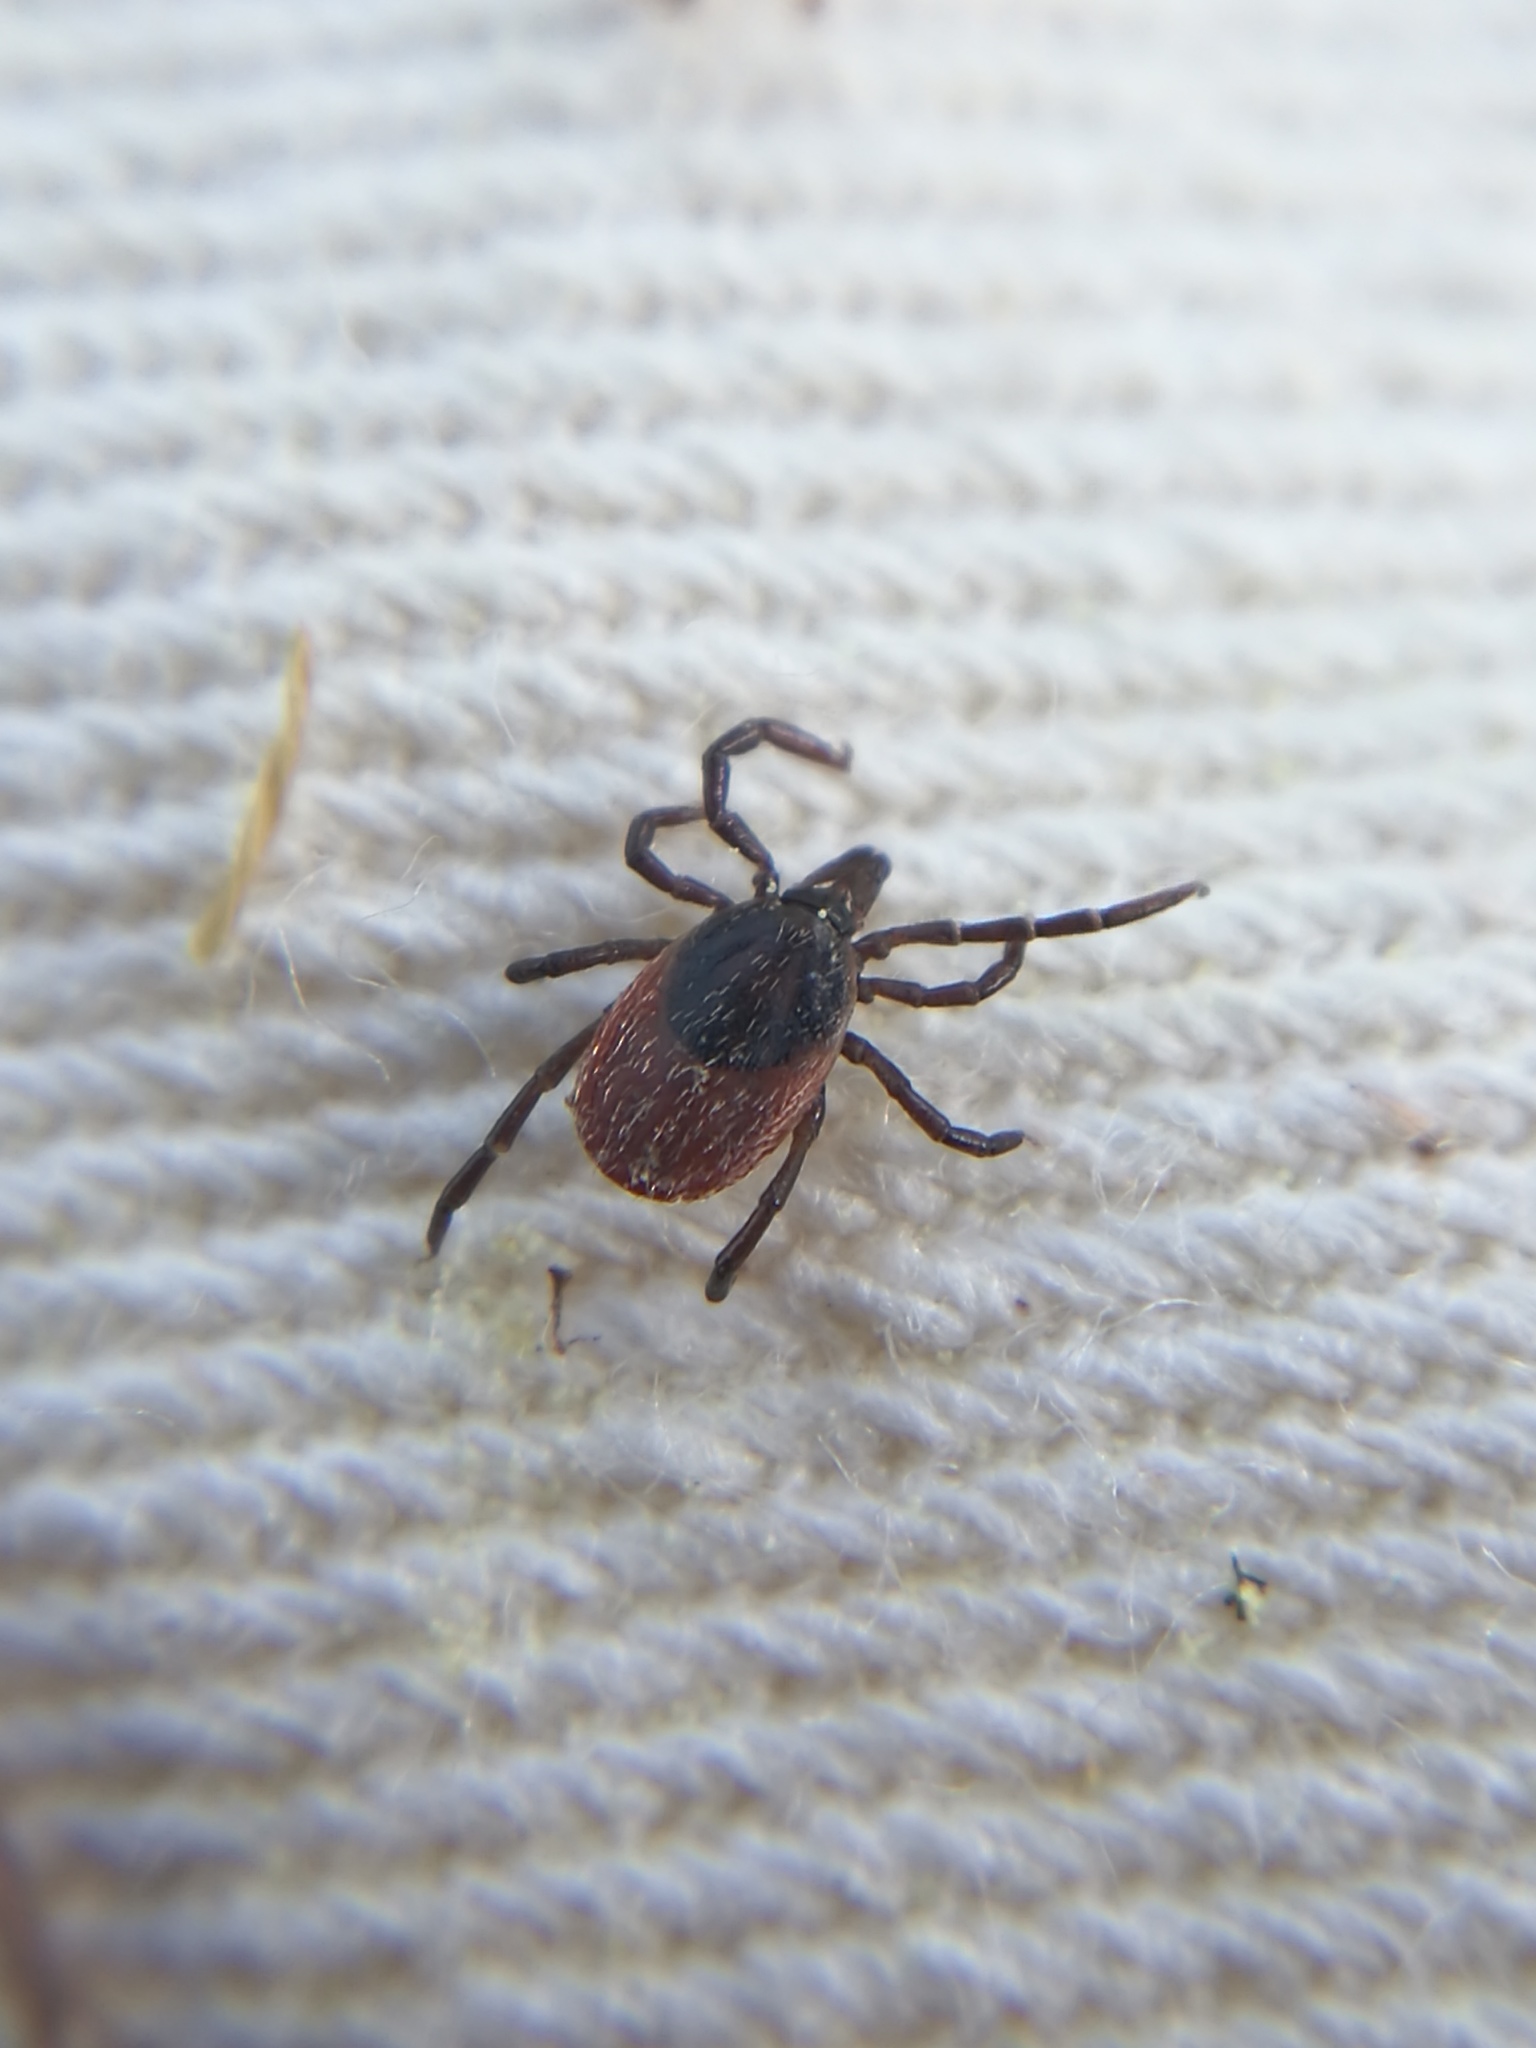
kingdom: Animalia
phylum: Arthropoda
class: Arachnida
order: Ixodida
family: Ixodidae
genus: Ixodes
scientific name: Ixodes ricinus
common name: Castor bean tick
